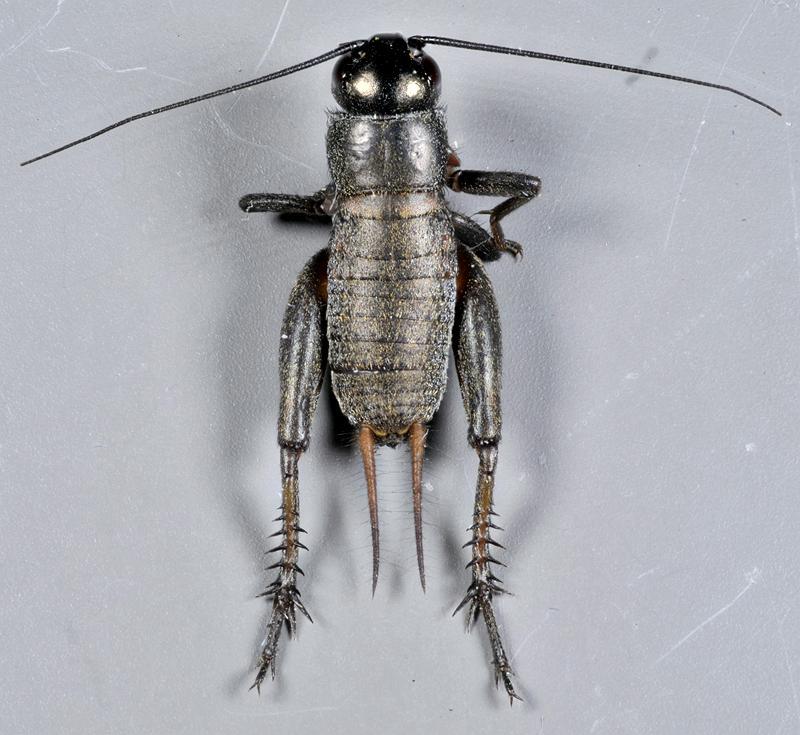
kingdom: Animalia
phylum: Arthropoda
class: Insecta
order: Orthoptera
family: Gryllidae
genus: Gryllus
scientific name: Gryllus veletis
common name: Spring field cricket
